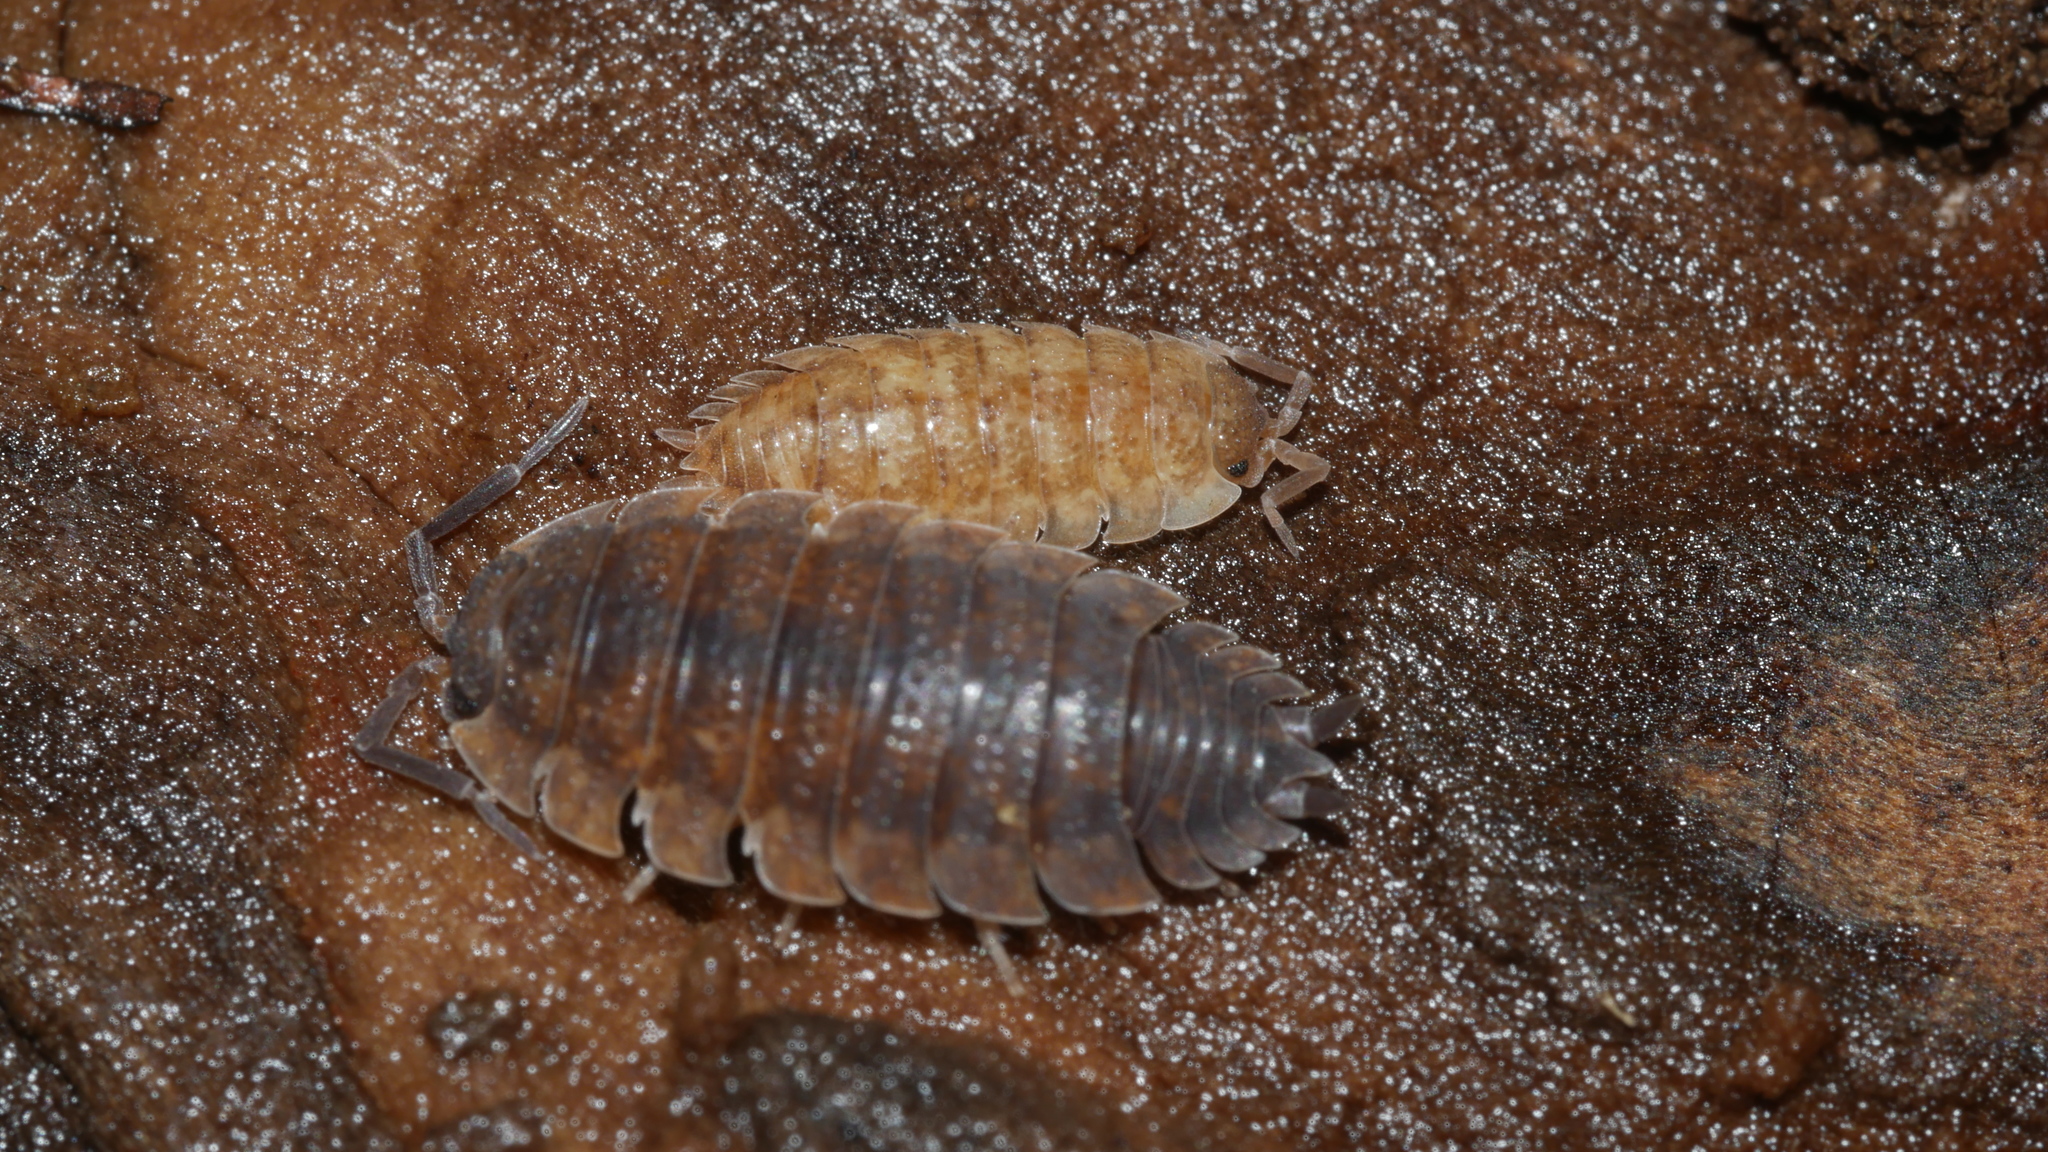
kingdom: Animalia
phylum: Arthropoda
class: Malacostraca
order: Isopoda
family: Porcellionidae
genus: Porcellio
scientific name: Porcellio scaber
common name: Common rough woodlouse
